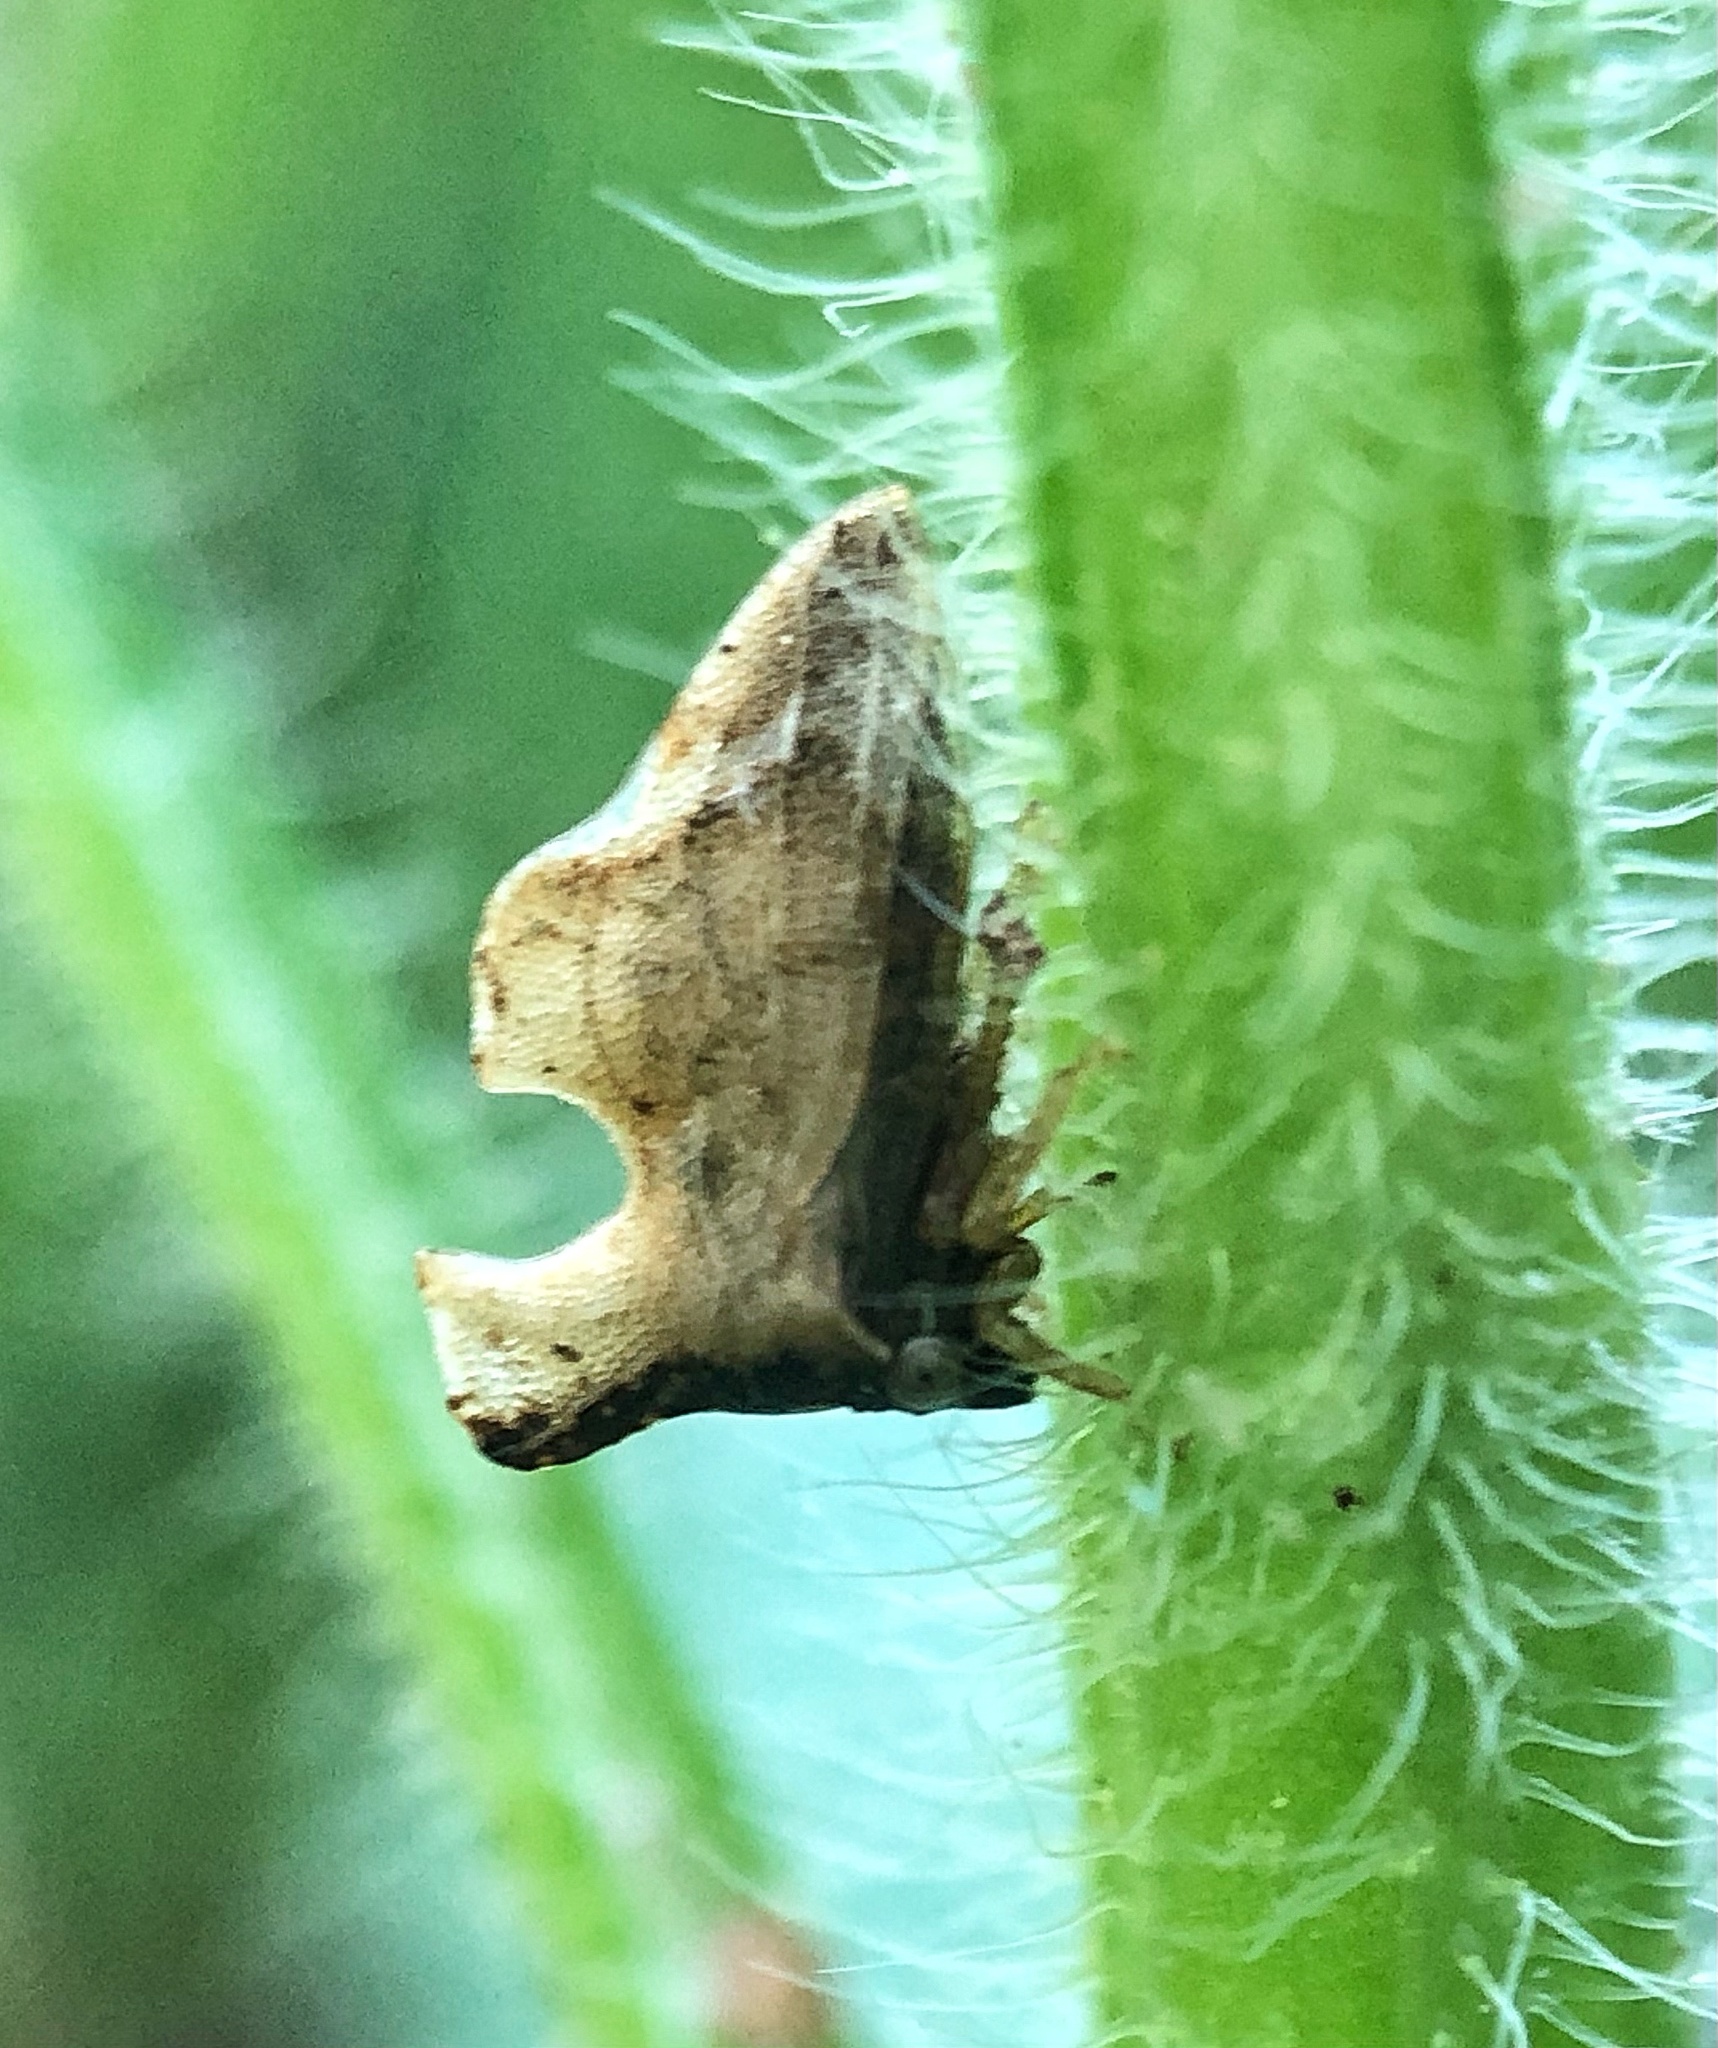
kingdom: Animalia
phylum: Arthropoda
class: Insecta
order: Hemiptera
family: Membracidae
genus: Entylia
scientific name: Entylia carinata
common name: Keeled treehopper
